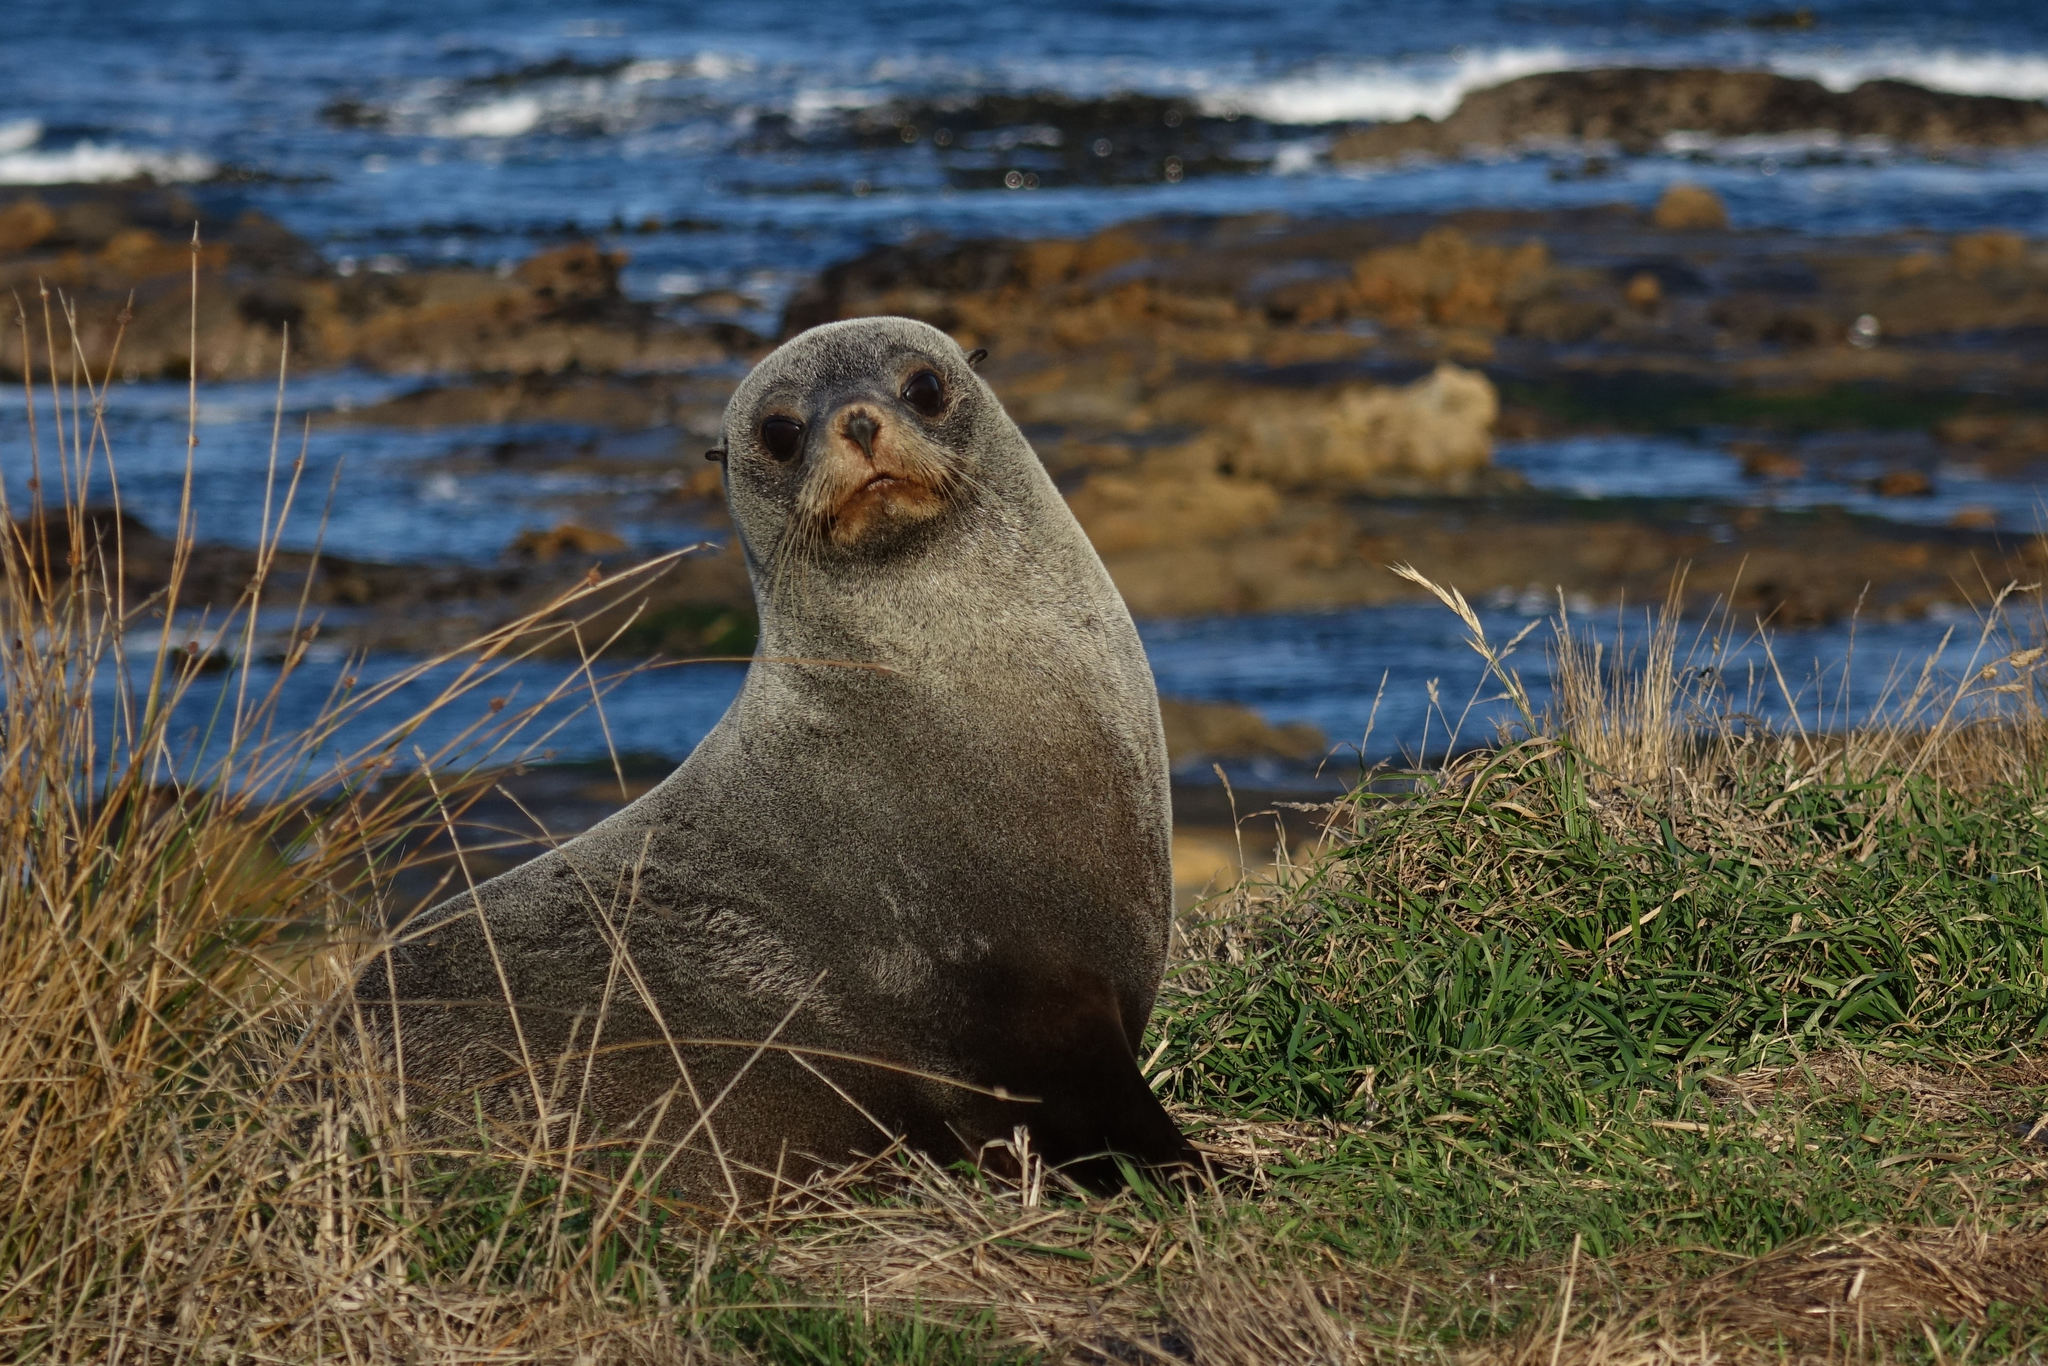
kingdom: Animalia
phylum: Chordata
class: Mammalia
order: Carnivora
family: Otariidae
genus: Arctocephalus
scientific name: Arctocephalus forsteri
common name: New zealand fur seal
